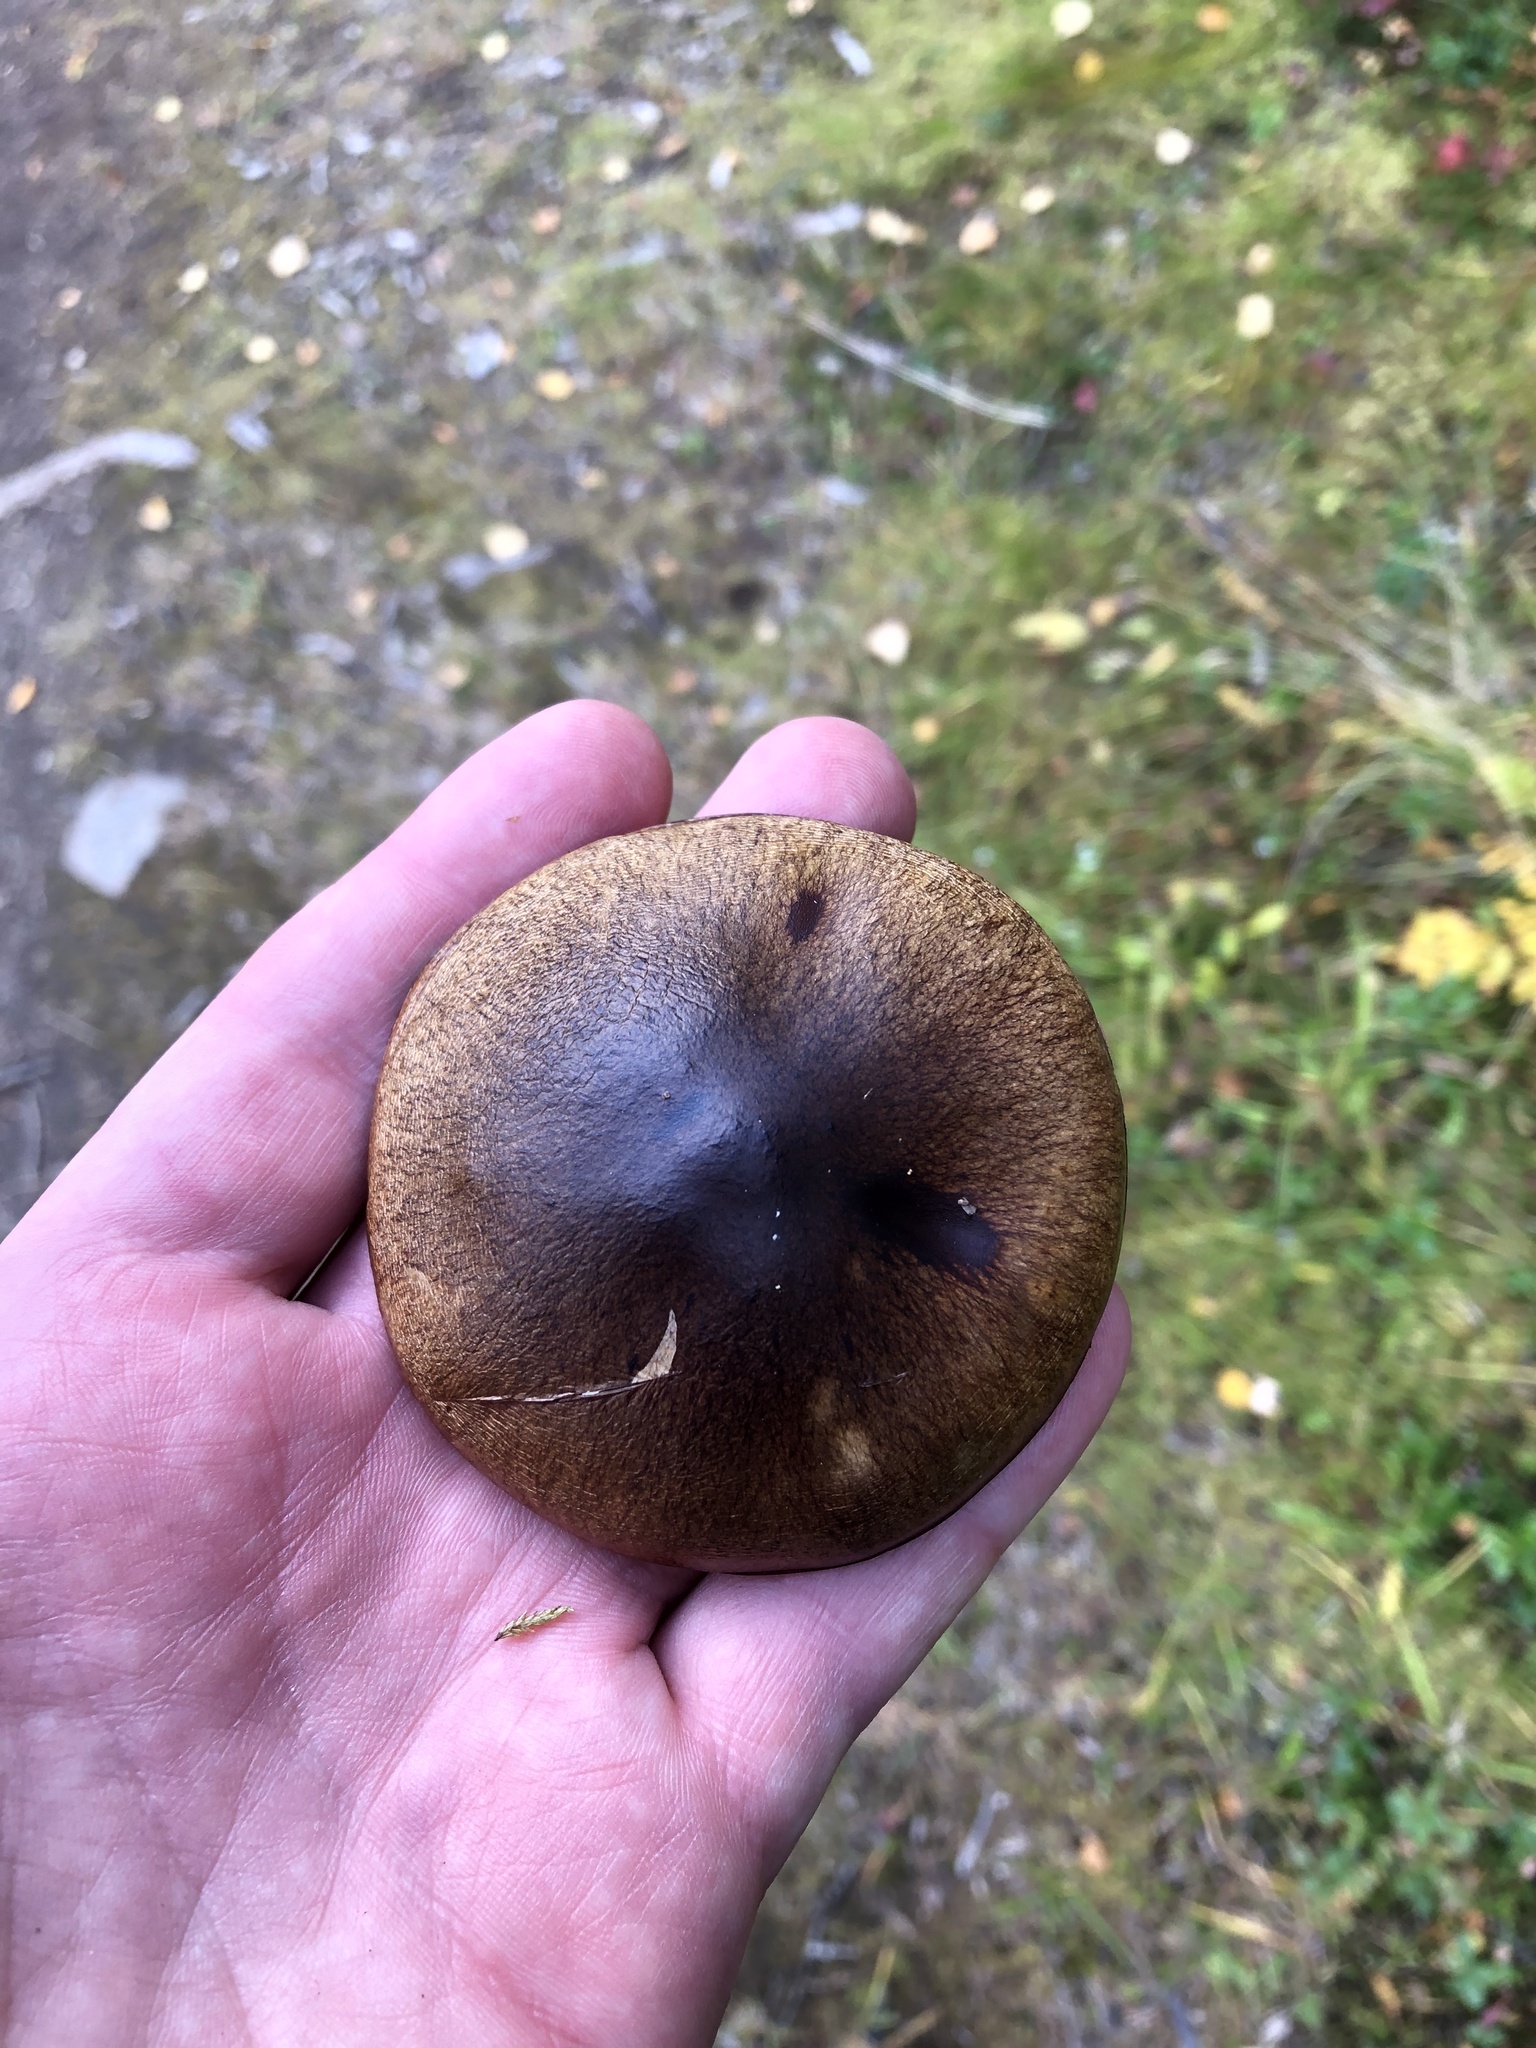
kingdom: Fungi
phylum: Basidiomycota
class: Agaricomycetes
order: Boletales
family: Suillaceae
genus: Suillus
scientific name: Suillus luteus
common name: Slippery jack
